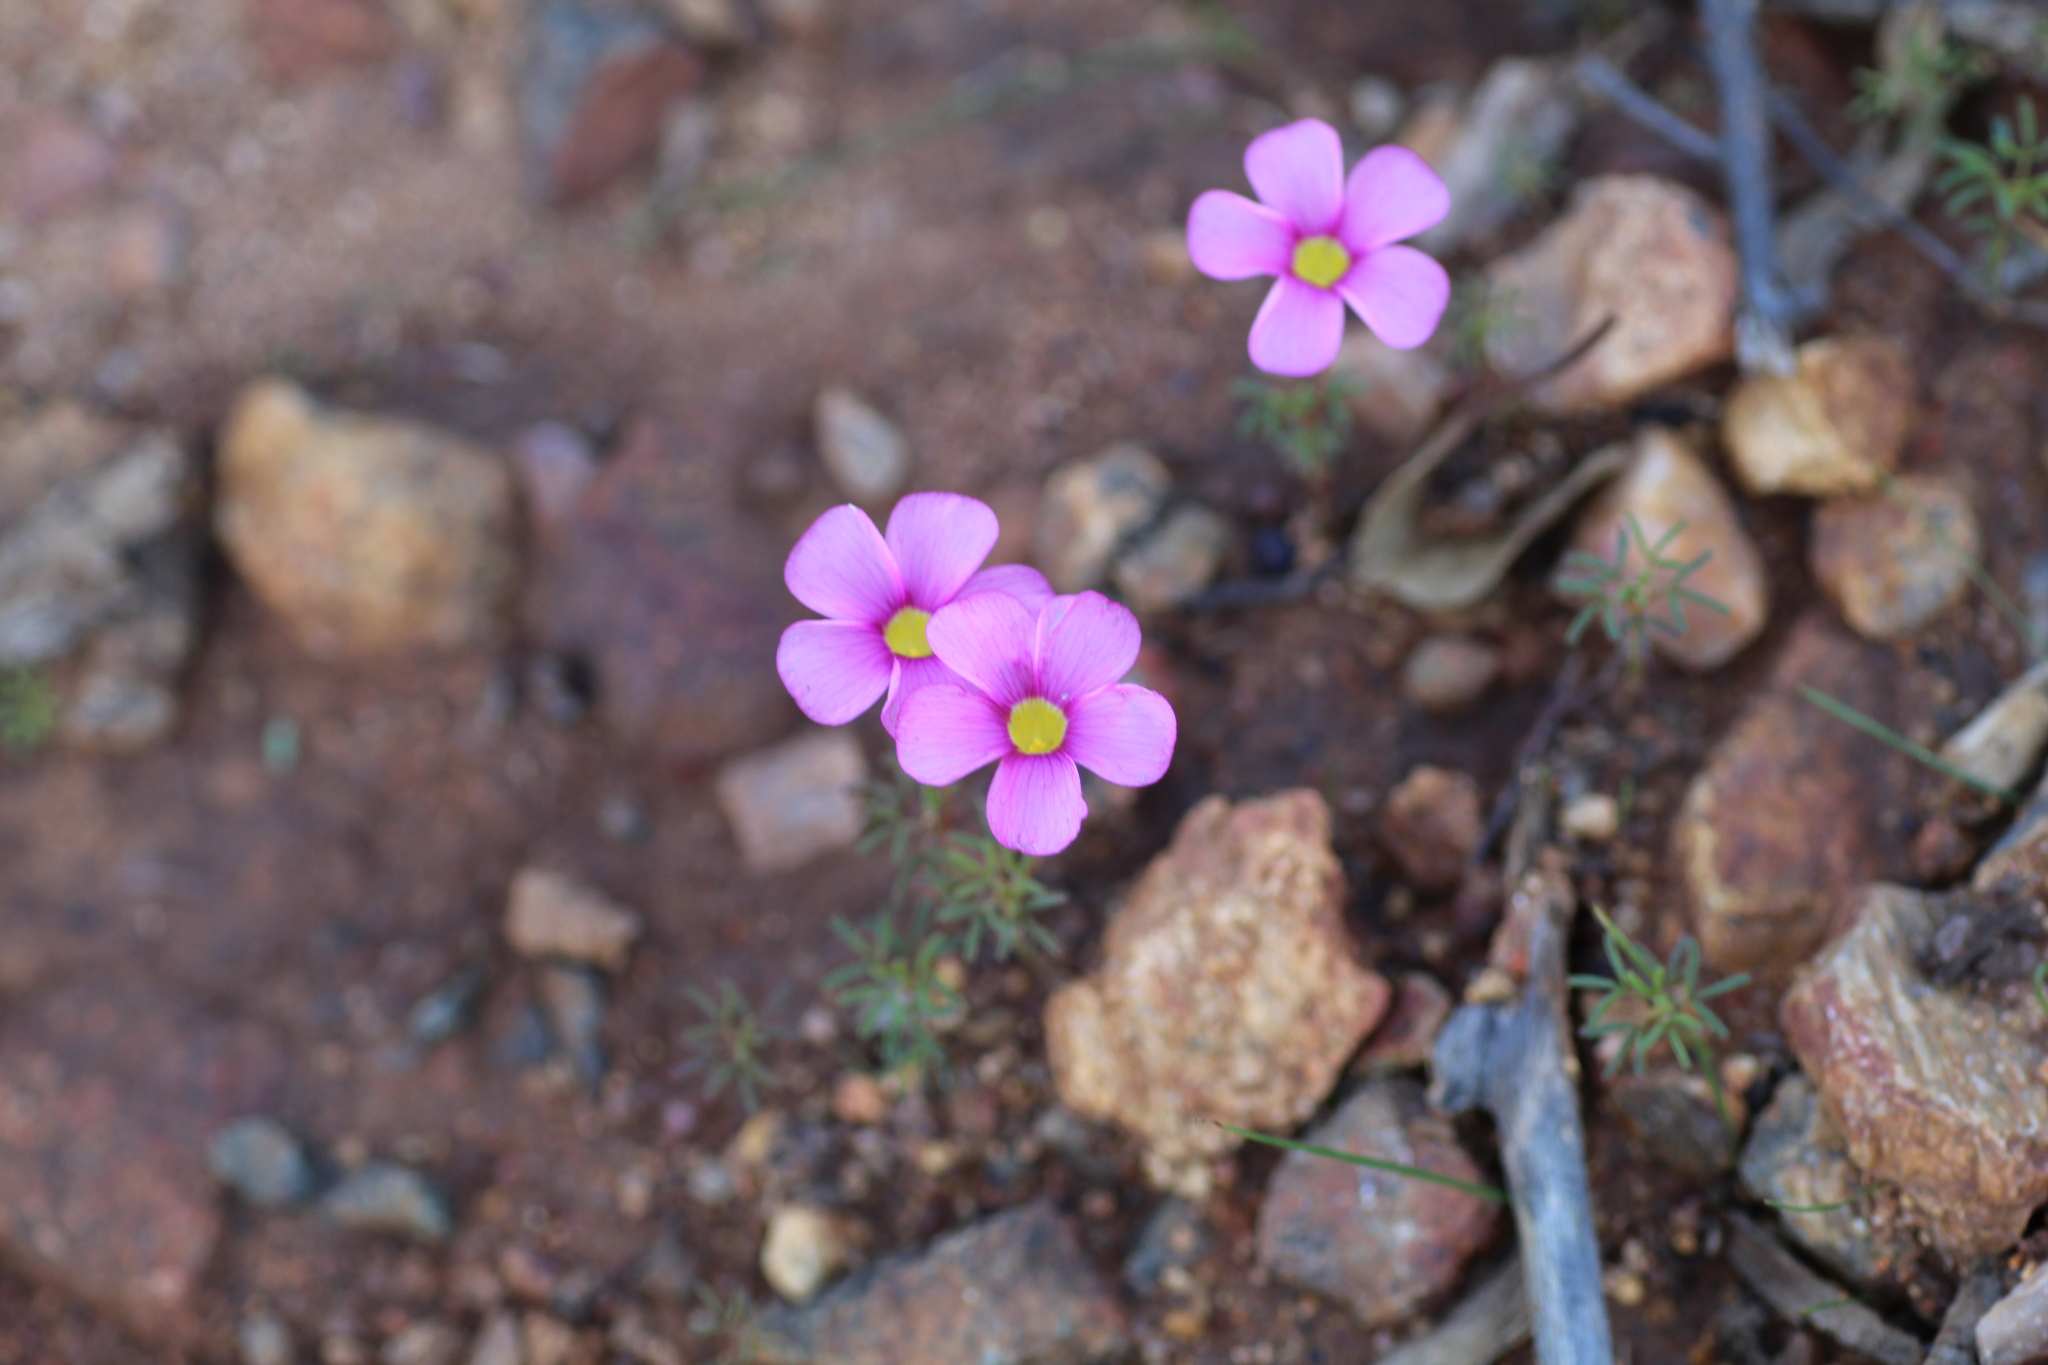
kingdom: Plantae
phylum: Tracheophyta
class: Magnoliopsida
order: Oxalidales
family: Oxalidaceae
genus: Oxalis
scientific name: Oxalis glabra
